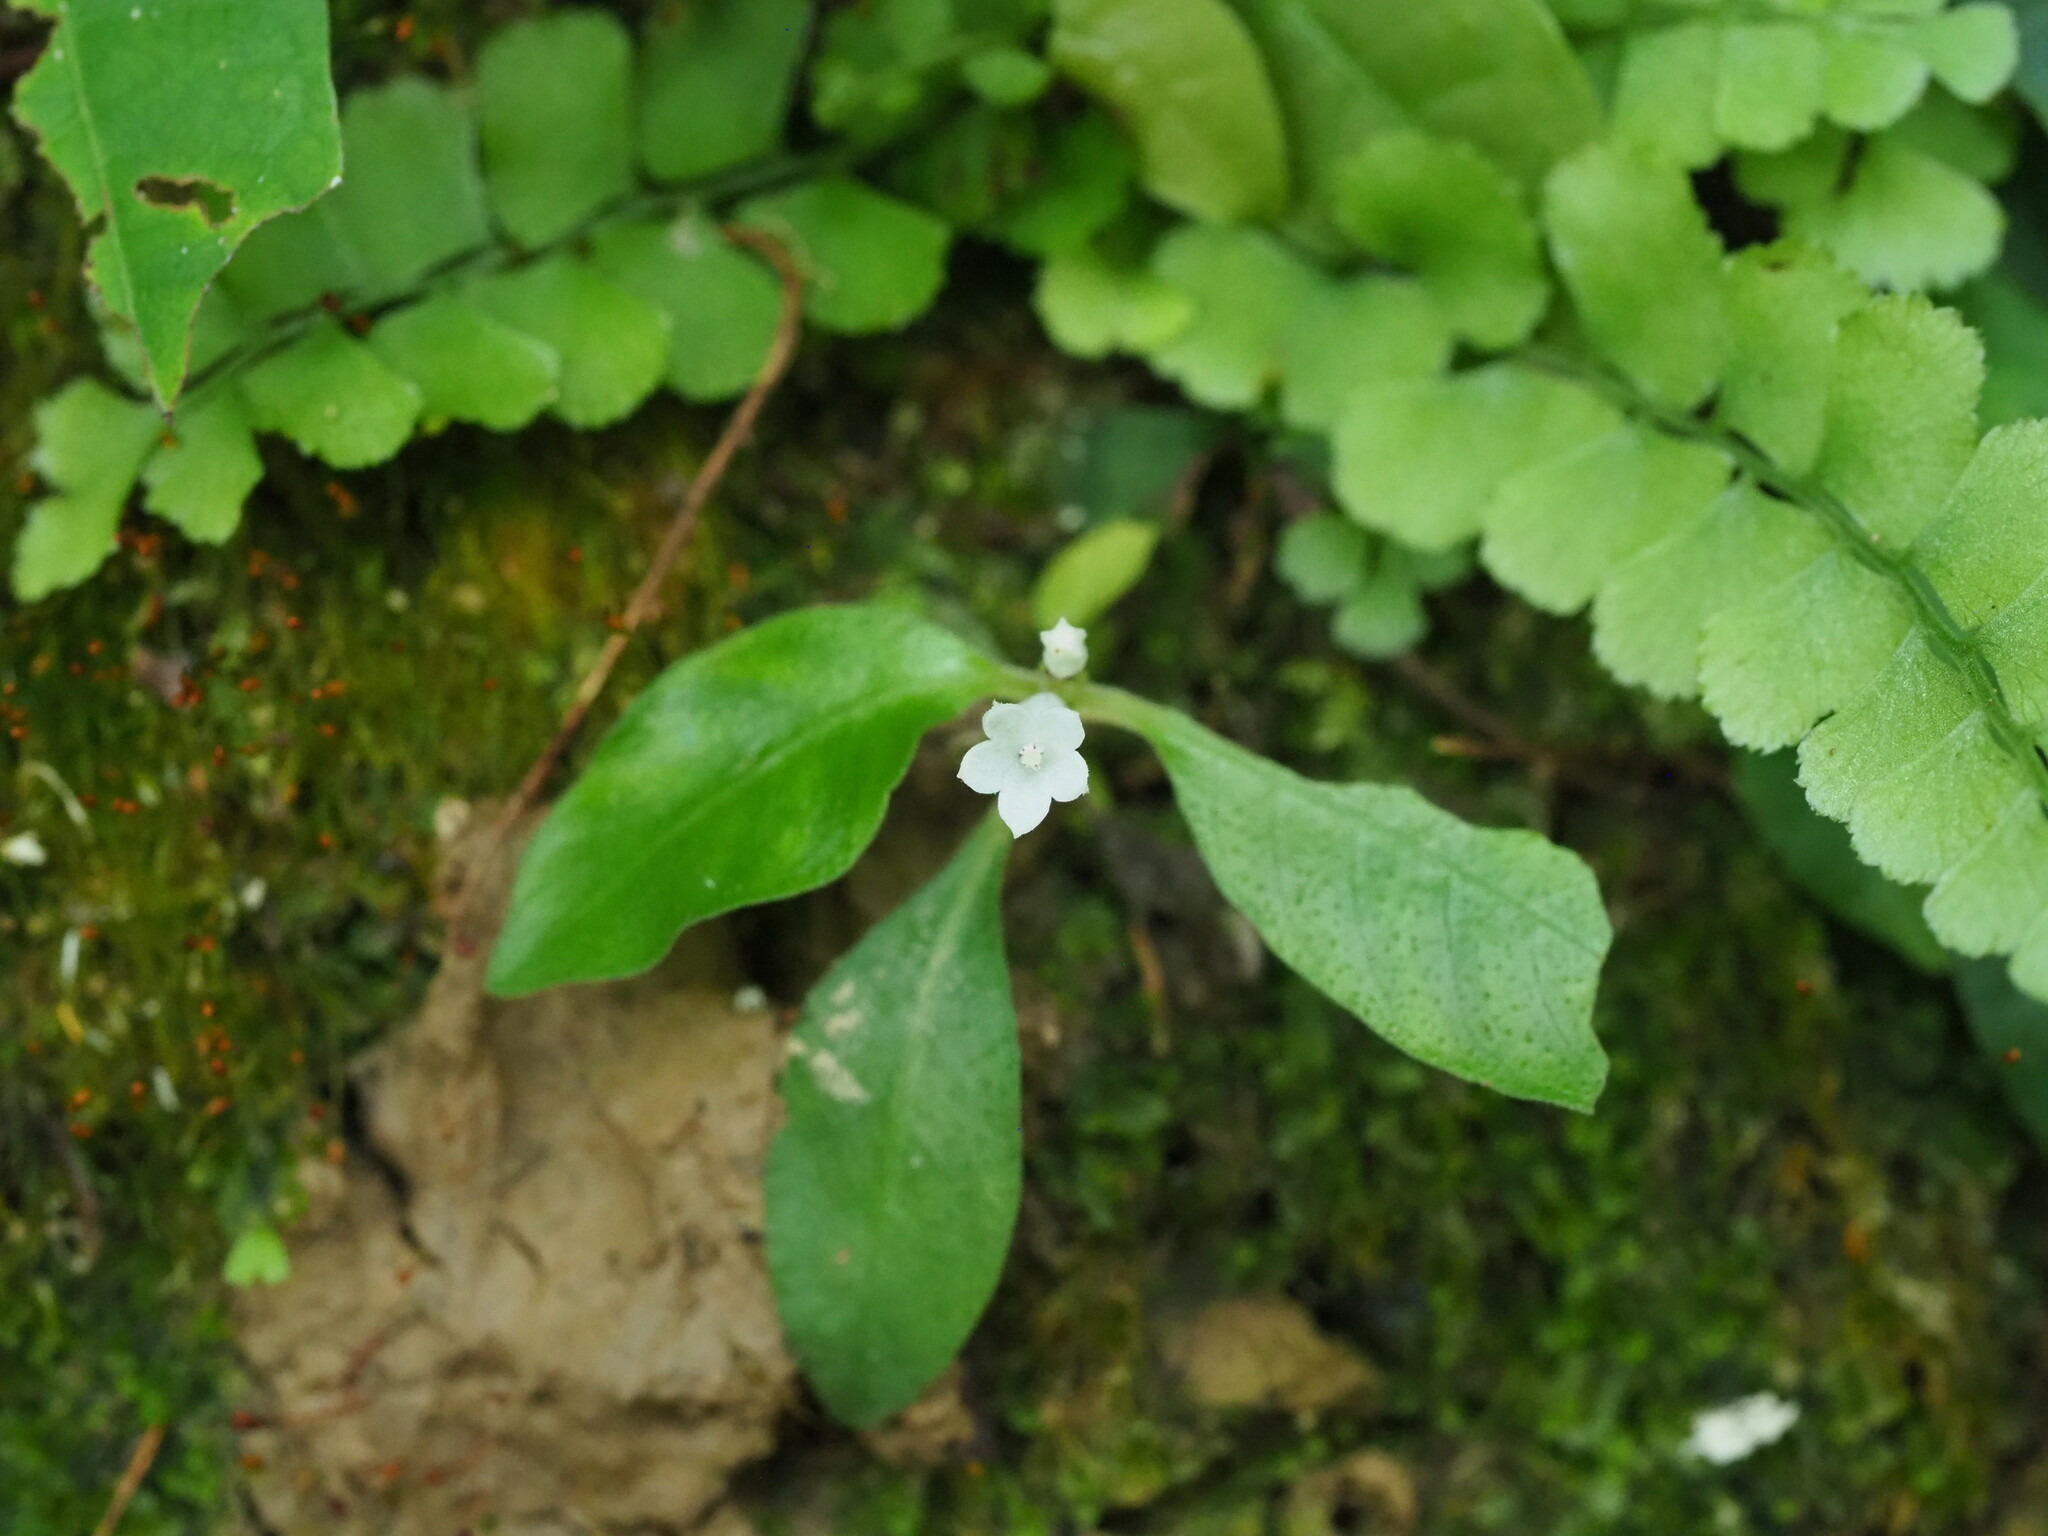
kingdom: Plantae
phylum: Tracheophyta
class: Magnoliopsida
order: Gentianales
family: Rubiaceae
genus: Ophiorrhiza
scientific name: Ophiorrhiza pumila
